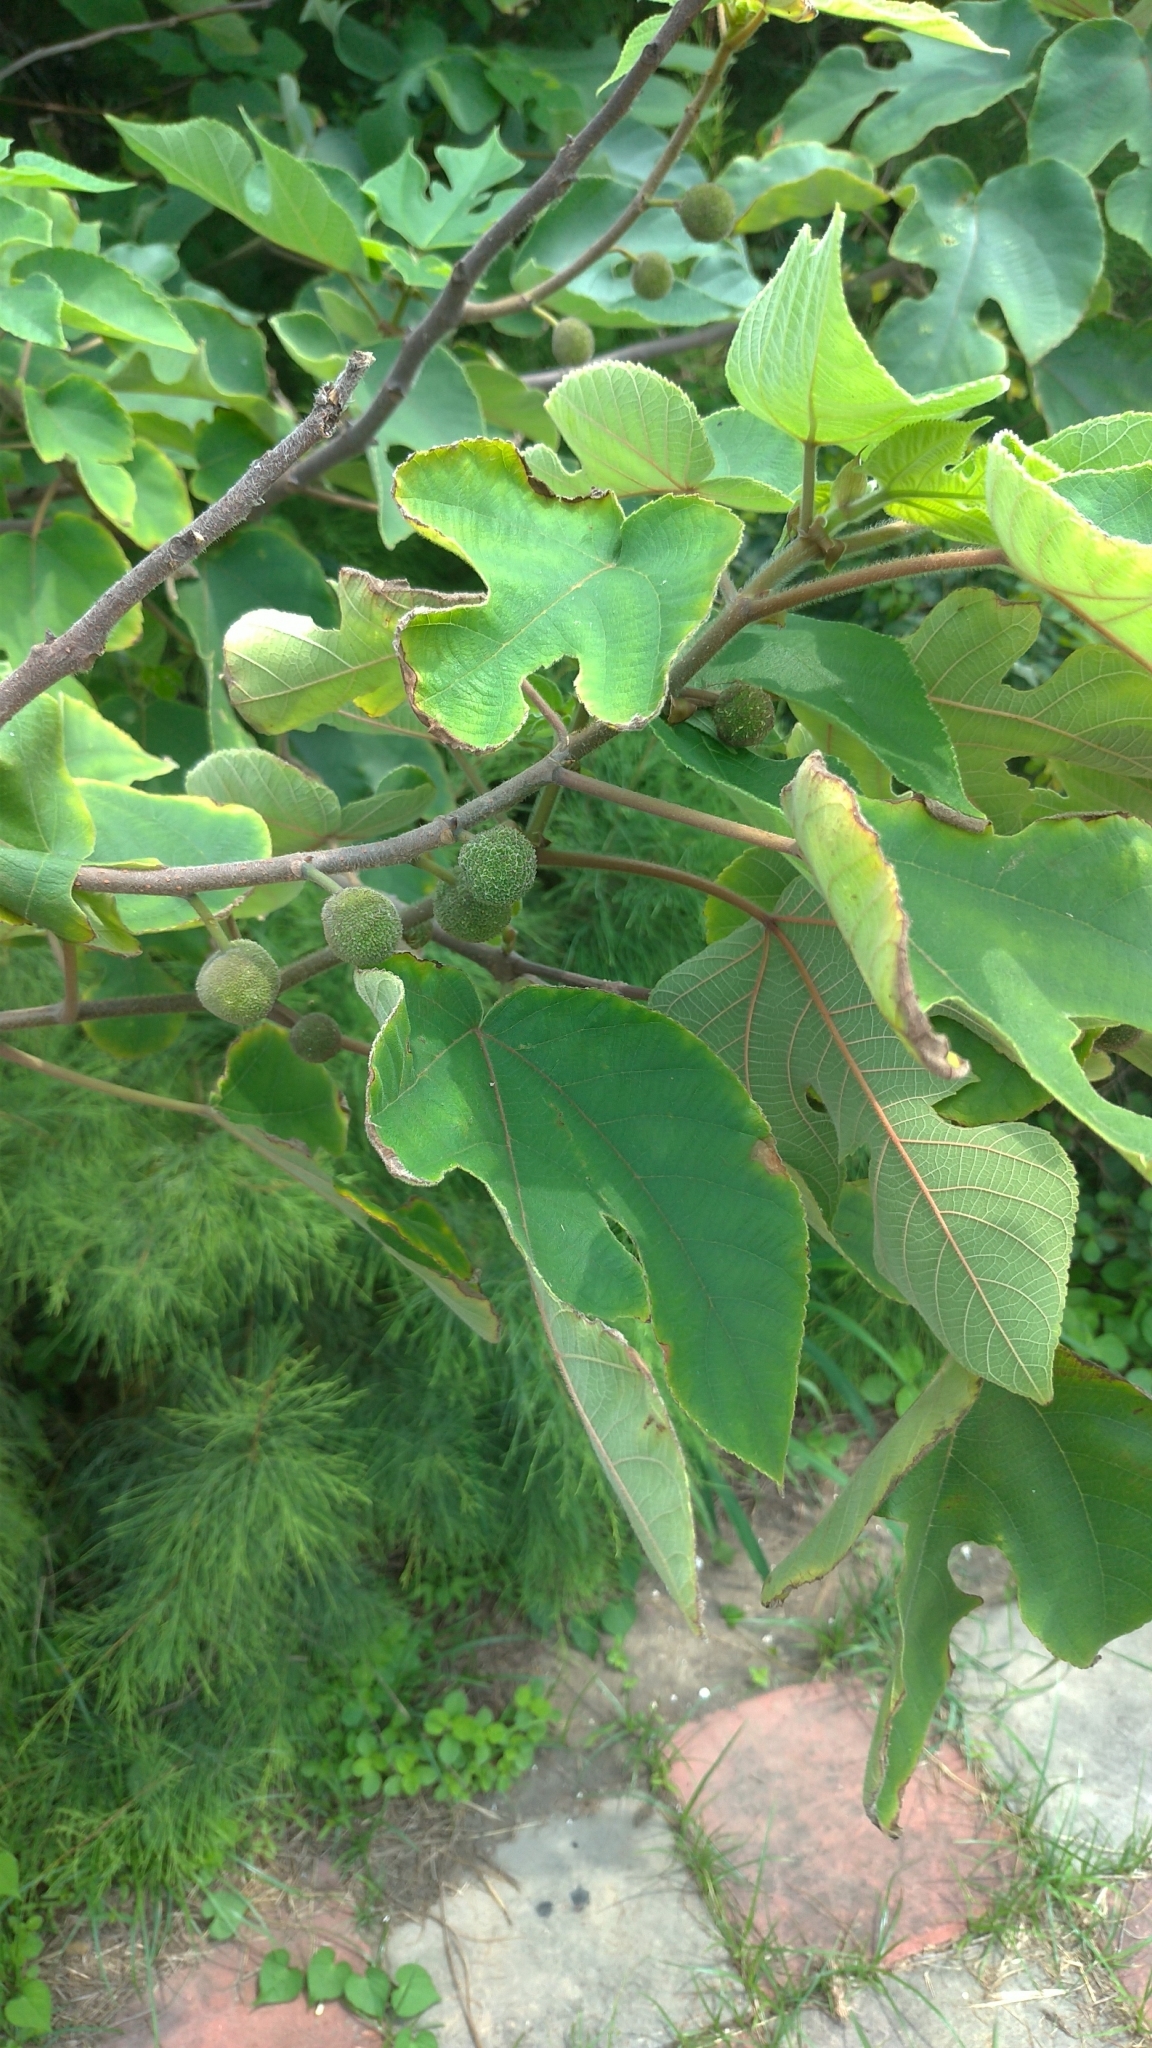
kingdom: Plantae
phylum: Tracheophyta
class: Magnoliopsida
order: Rosales
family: Moraceae
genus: Broussonetia
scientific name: Broussonetia papyrifera
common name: Paper mulberry
